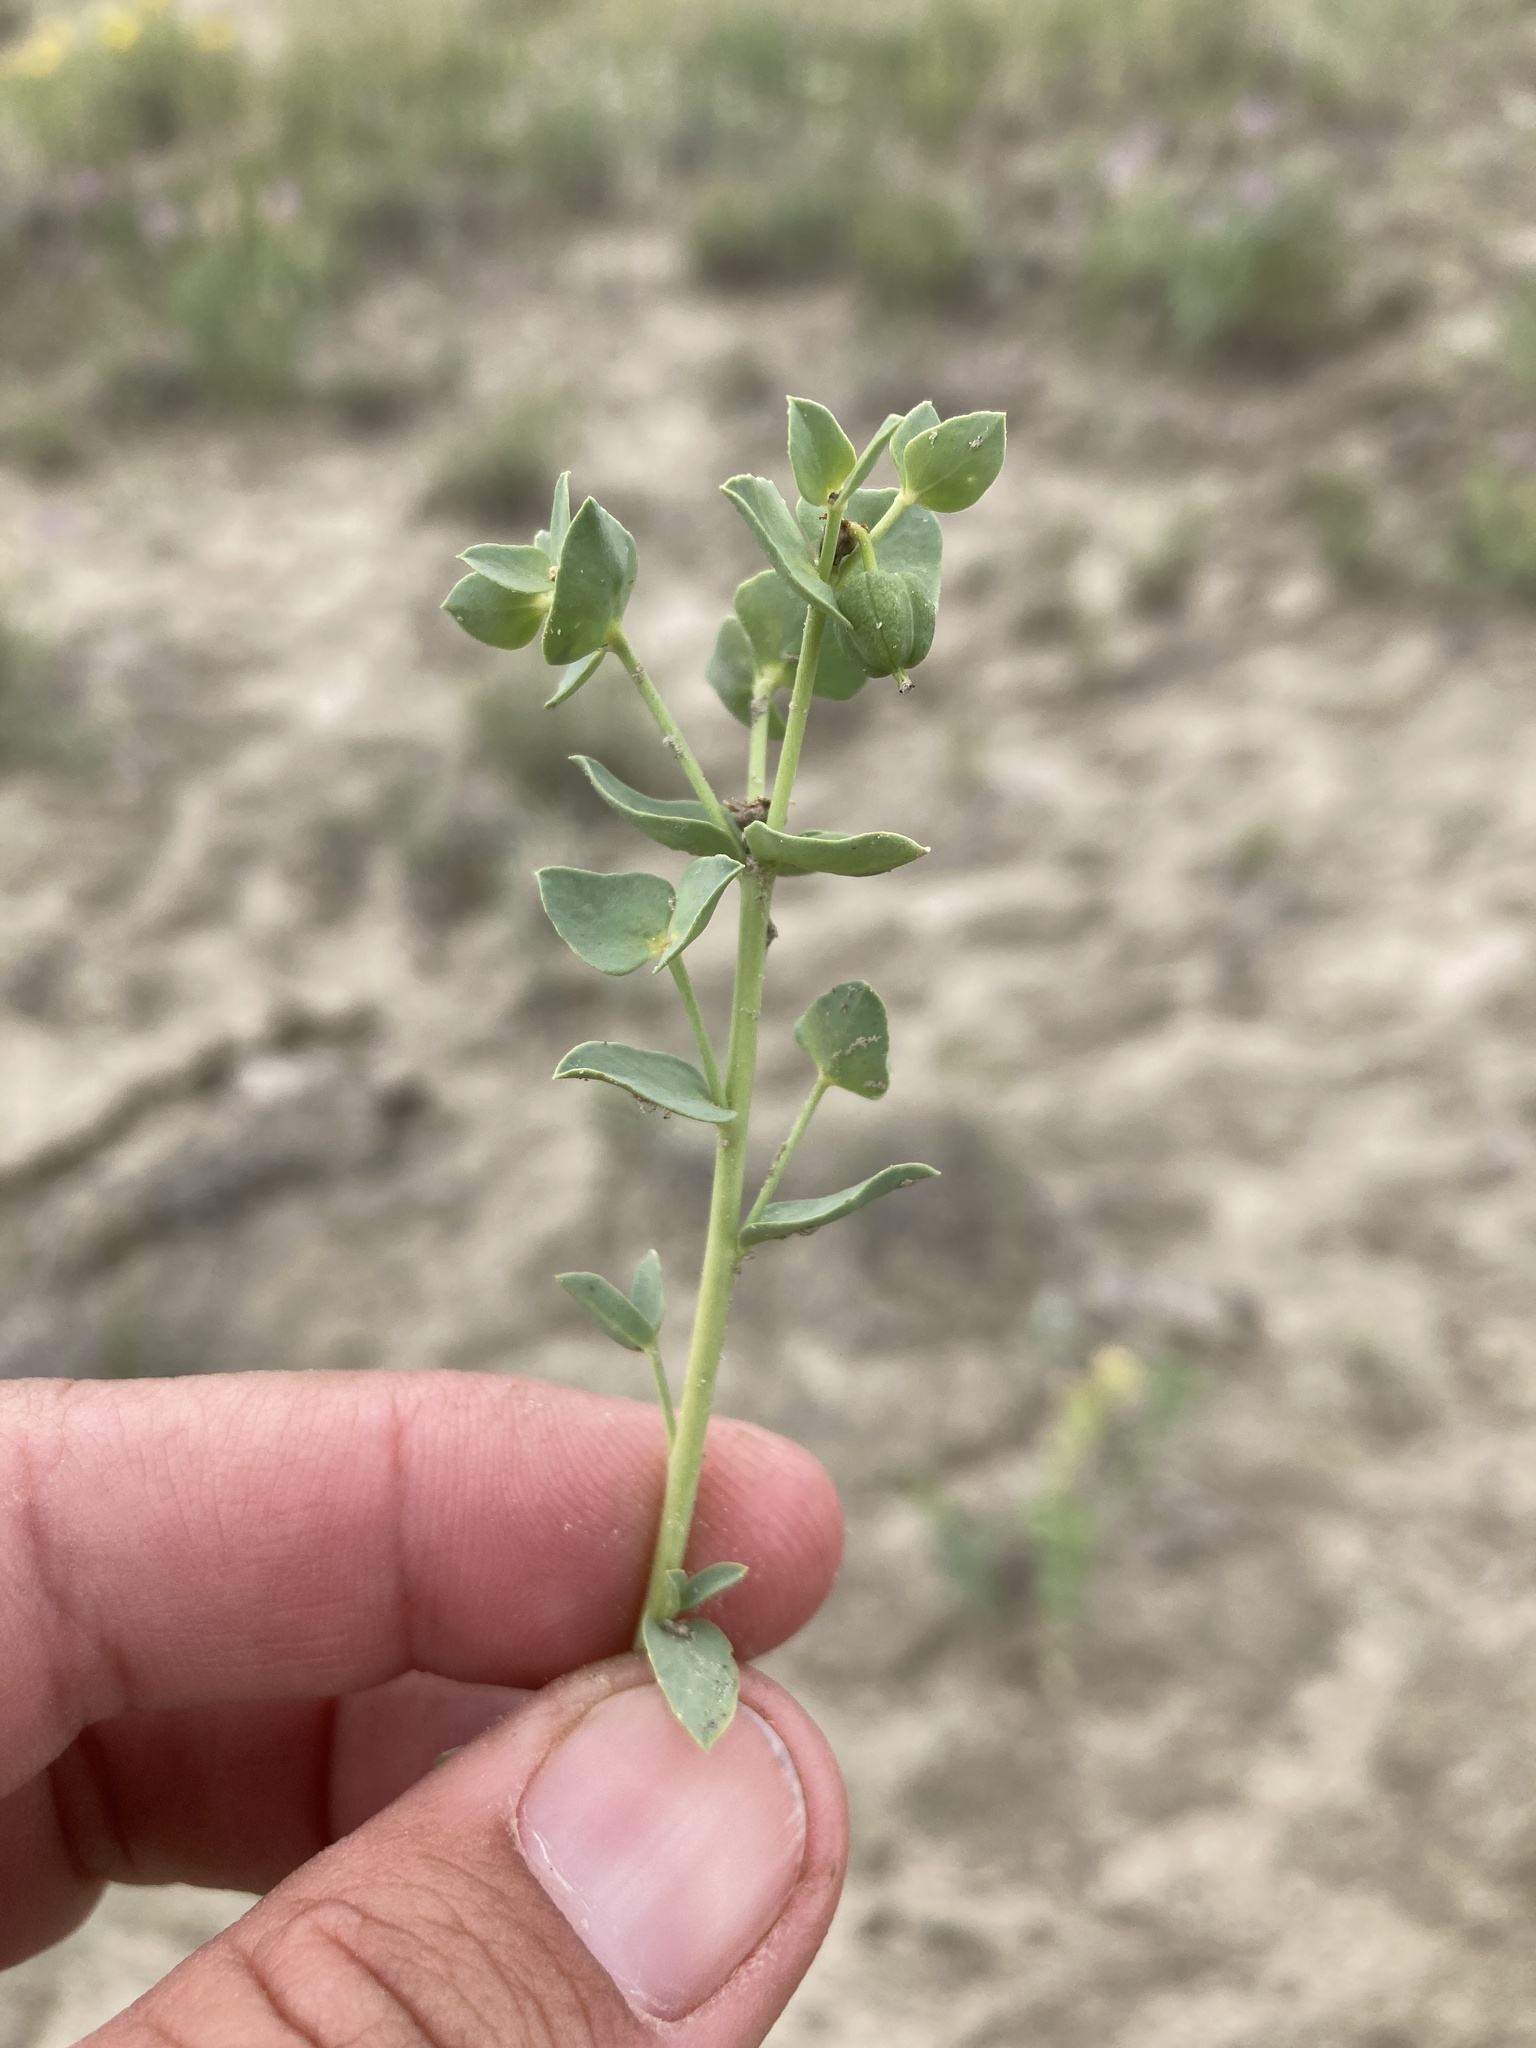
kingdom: Plantae
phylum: Tracheophyta
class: Magnoliopsida
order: Malpighiales
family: Euphorbiaceae
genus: Euphorbia
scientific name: Euphorbia brachycera
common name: Shorthorn spurge
